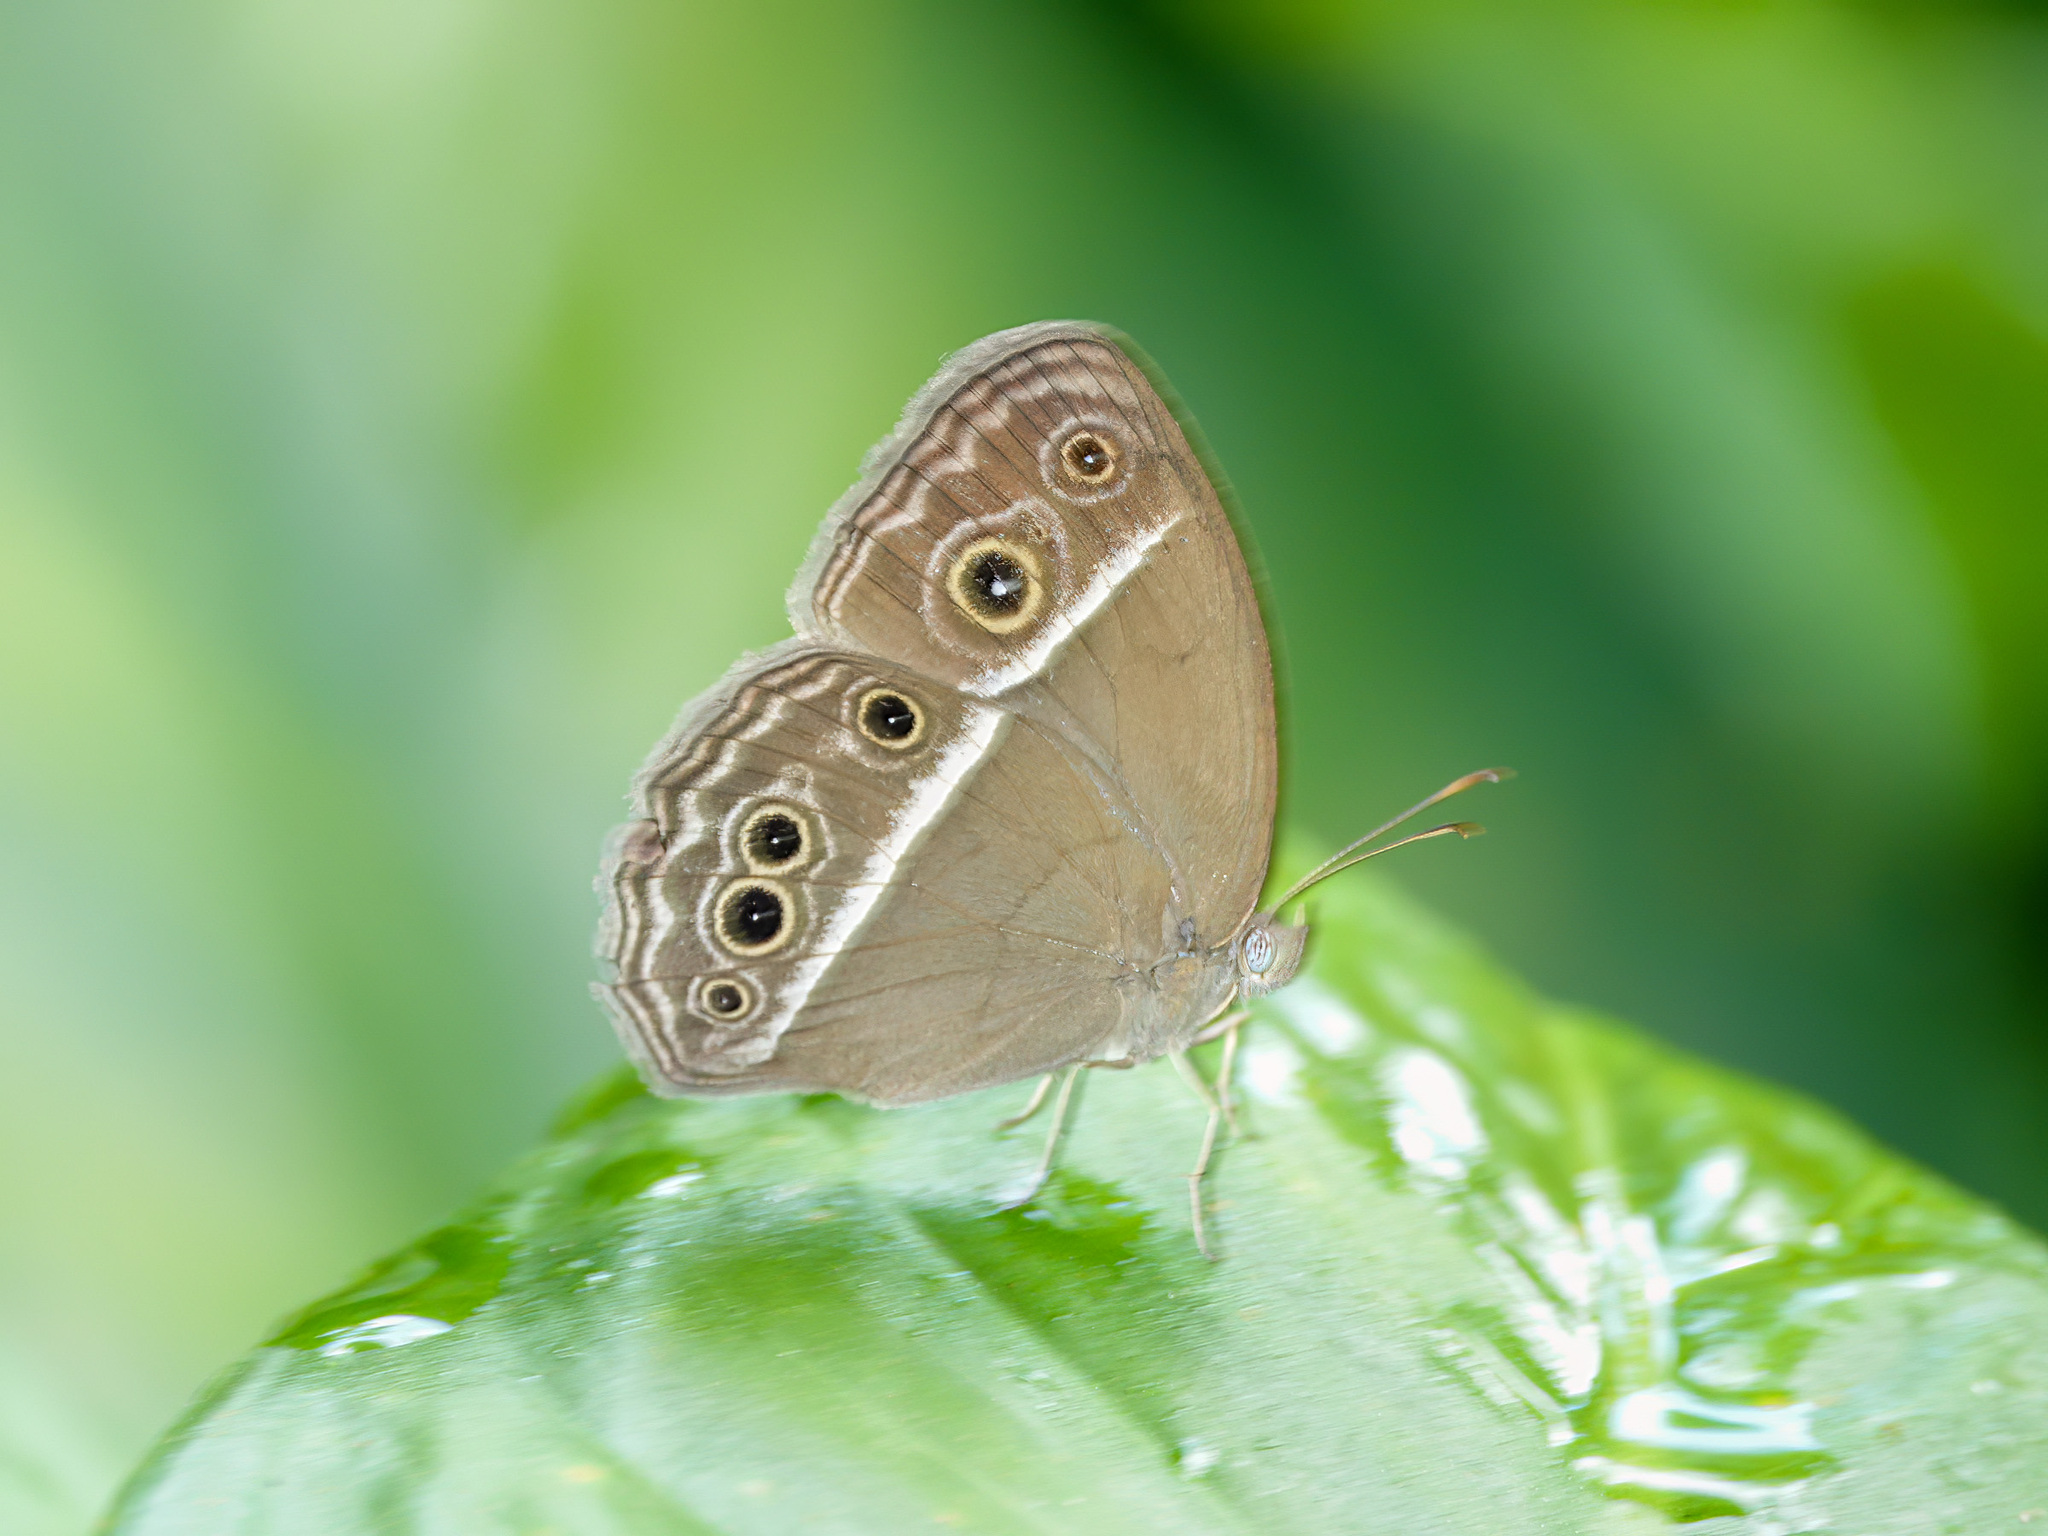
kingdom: Animalia
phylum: Arthropoda
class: Insecta
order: Lepidoptera
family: Nymphalidae
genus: Mycalesis
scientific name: Mycalesis mineus
